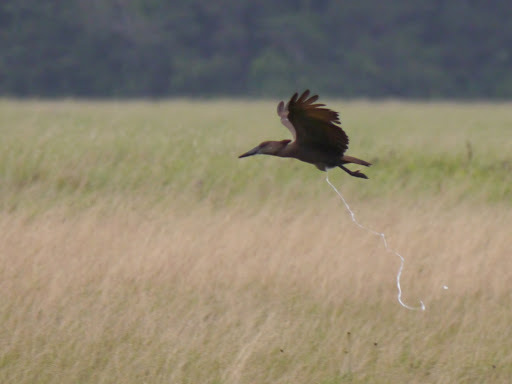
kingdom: Animalia
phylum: Chordata
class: Aves
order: Pelecaniformes
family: Scopidae
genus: Scopus
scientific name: Scopus umbretta
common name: Hamerkop
